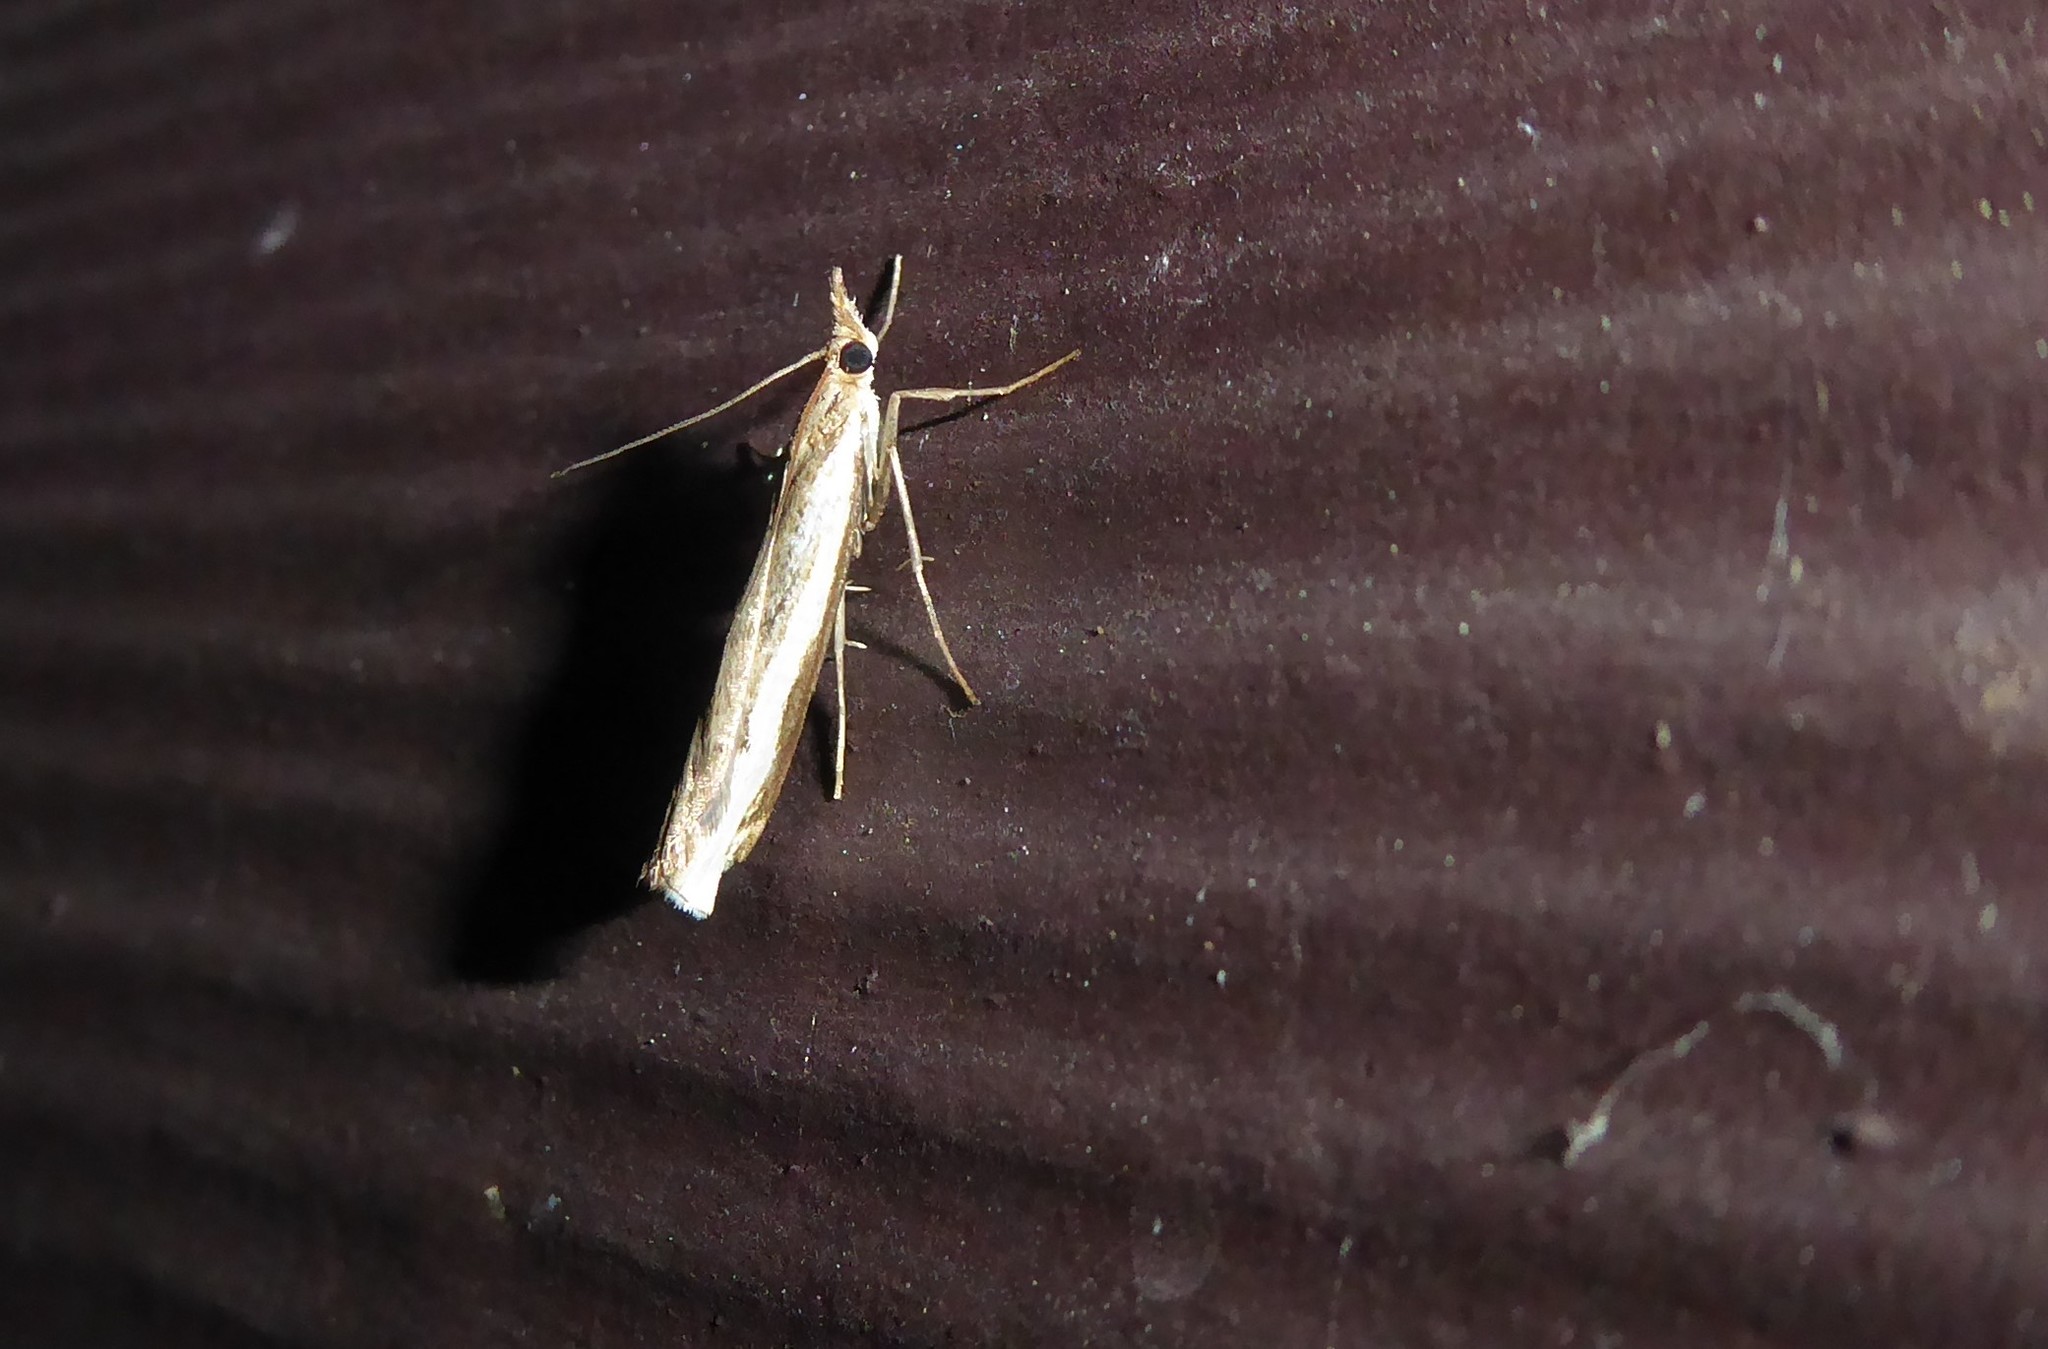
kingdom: Animalia
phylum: Arthropoda
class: Insecta
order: Lepidoptera
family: Crambidae
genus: Orocrambus
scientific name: Orocrambus flexuosellus
